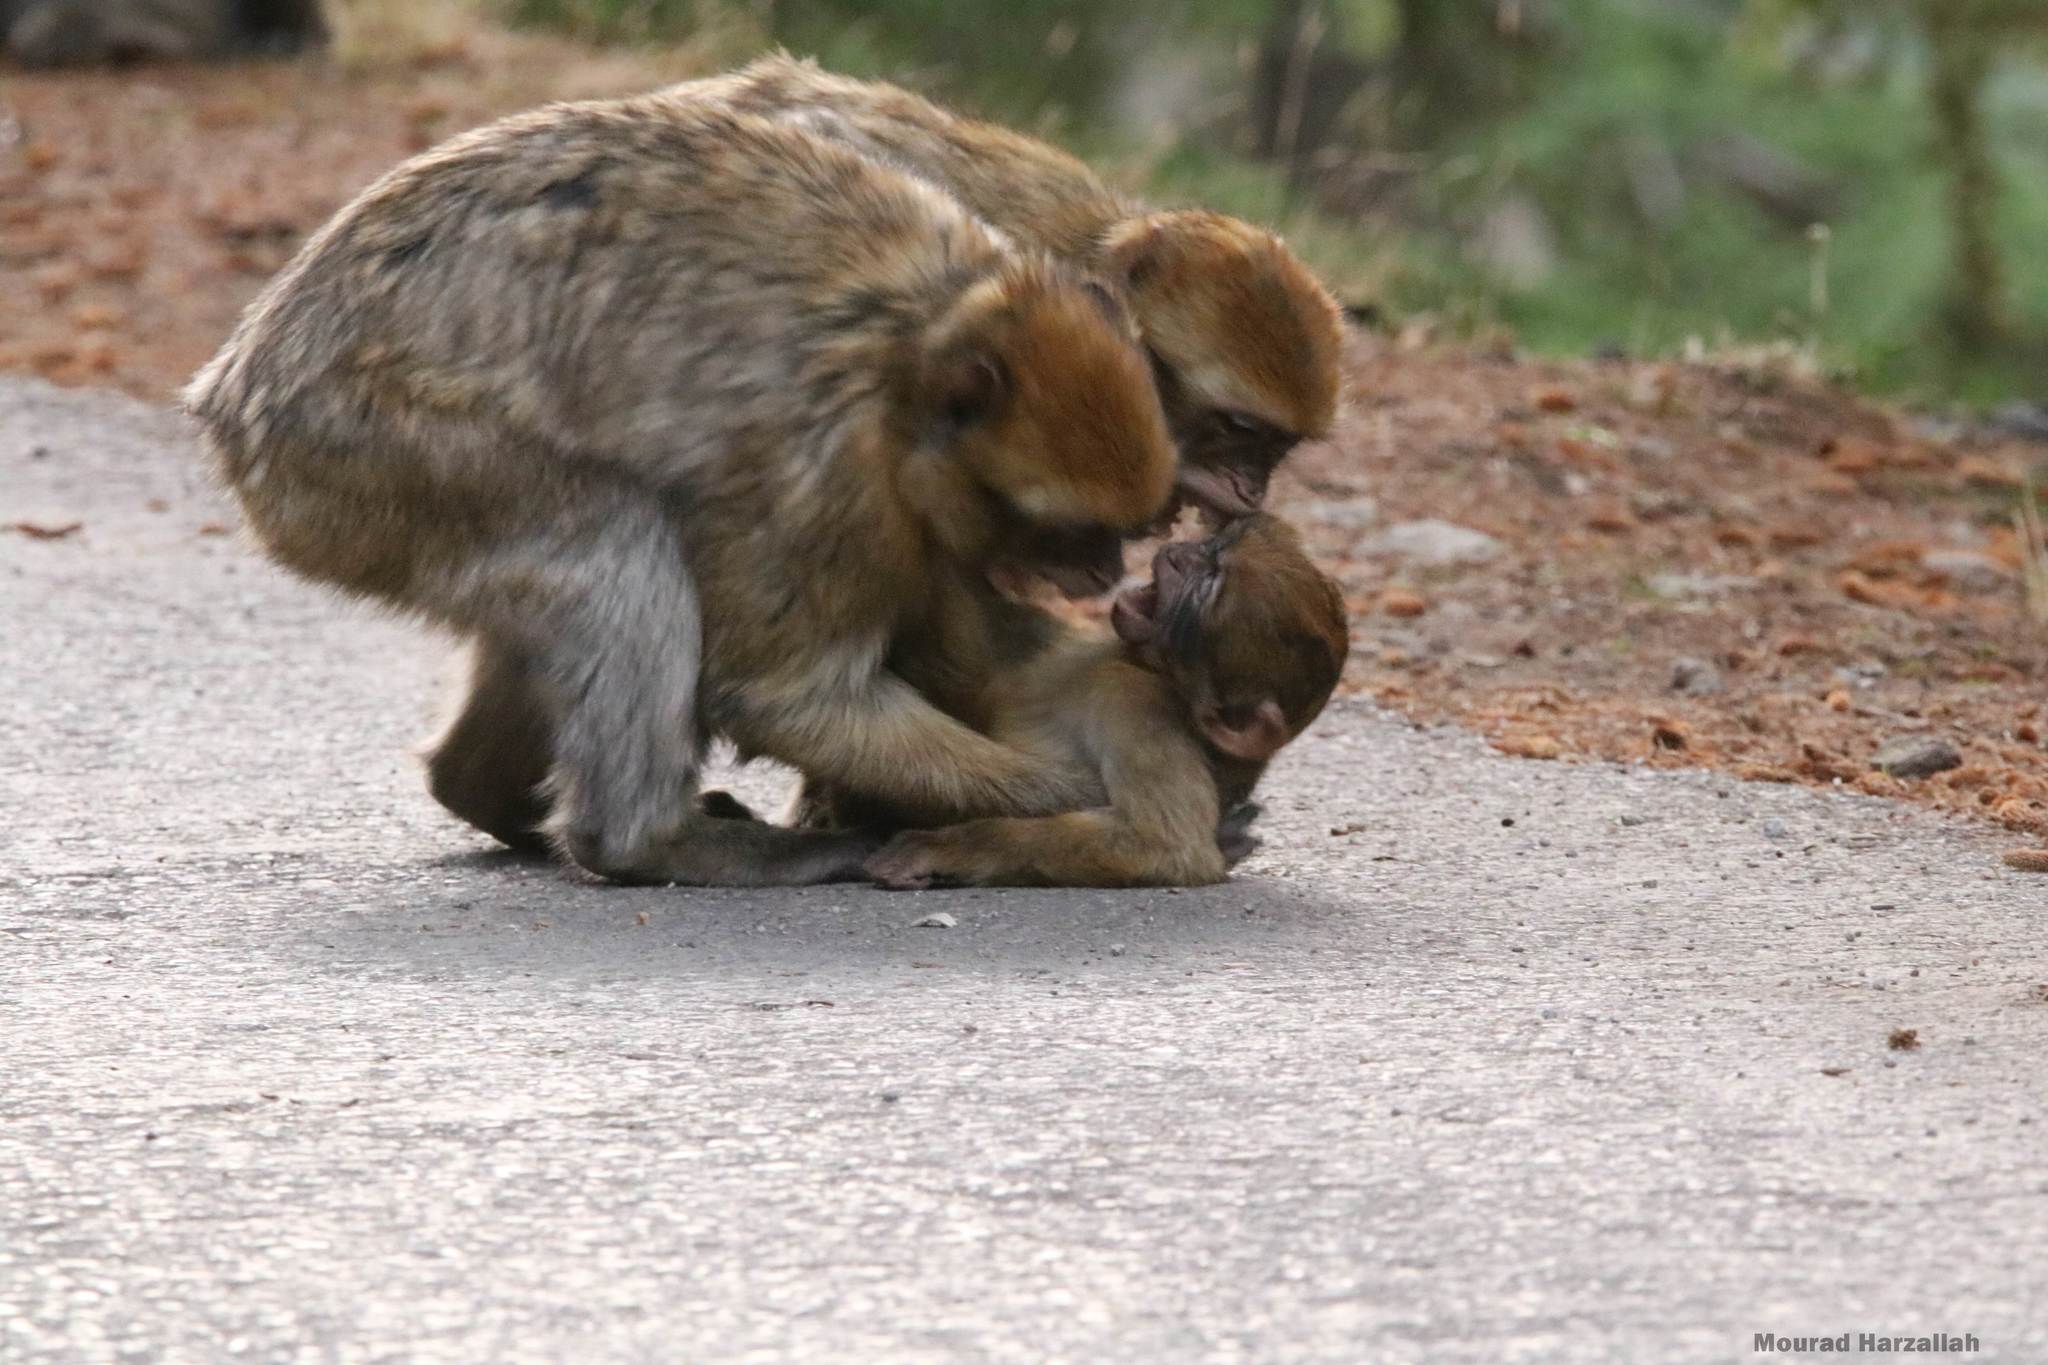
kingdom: Animalia
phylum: Chordata
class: Mammalia
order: Primates
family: Cercopithecidae
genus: Macaca
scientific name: Macaca sylvanus
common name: Barbary macaque
